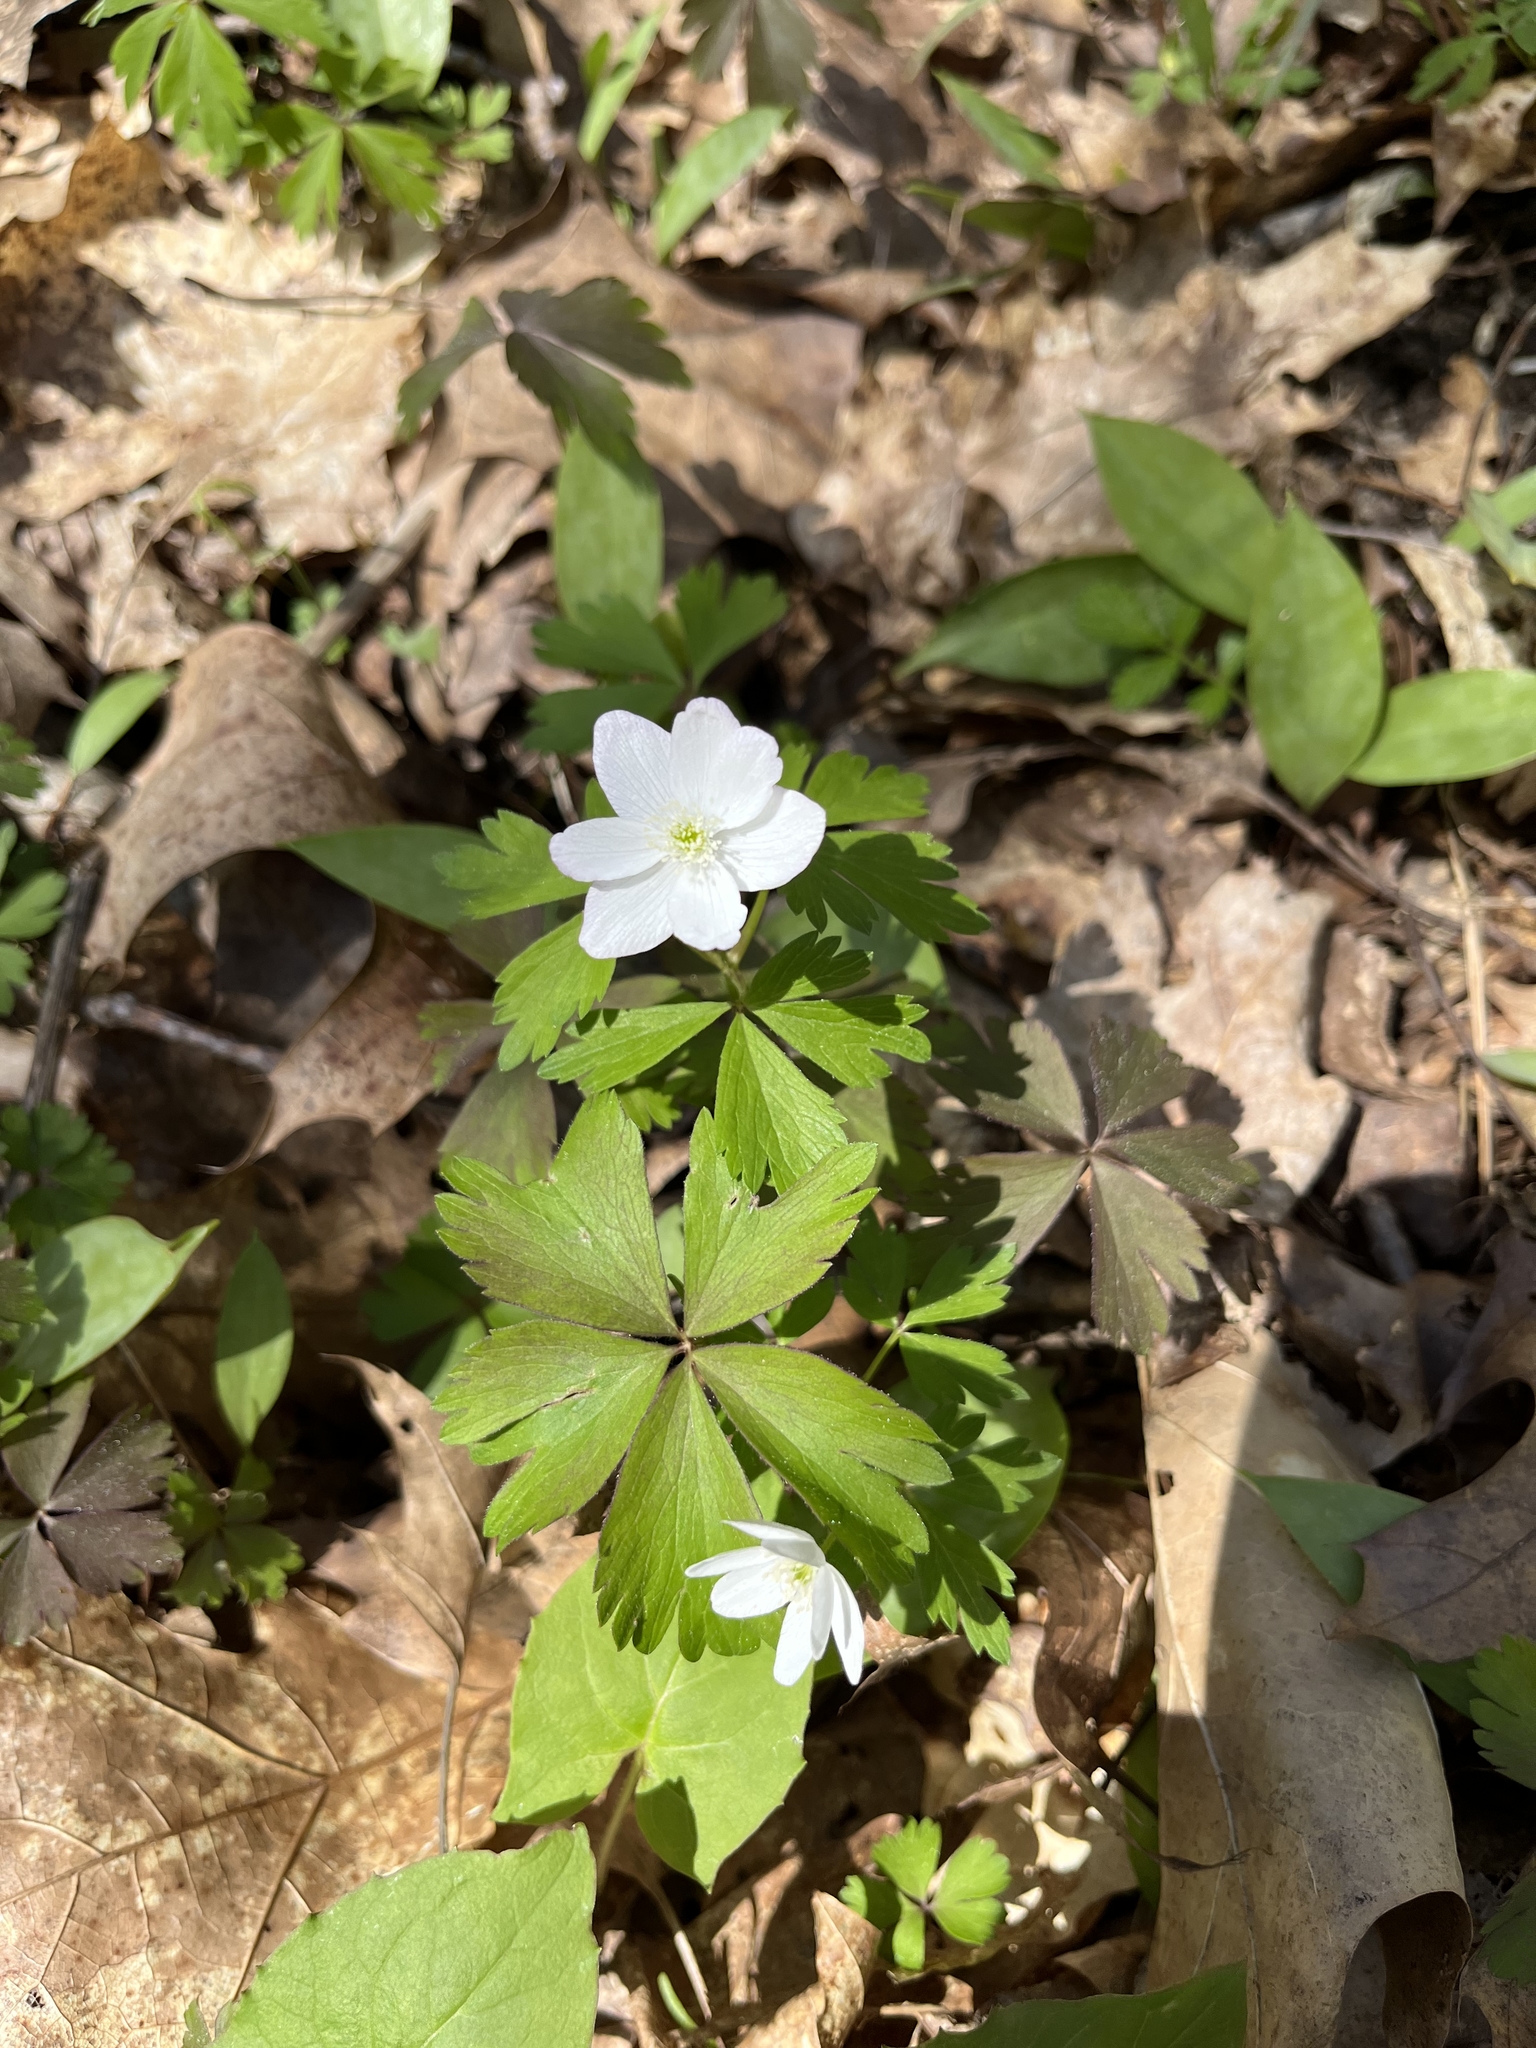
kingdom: Plantae
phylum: Tracheophyta
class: Magnoliopsida
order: Ranunculales
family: Ranunculaceae
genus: Anemone
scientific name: Anemone quinquefolia
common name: Wood anemone
